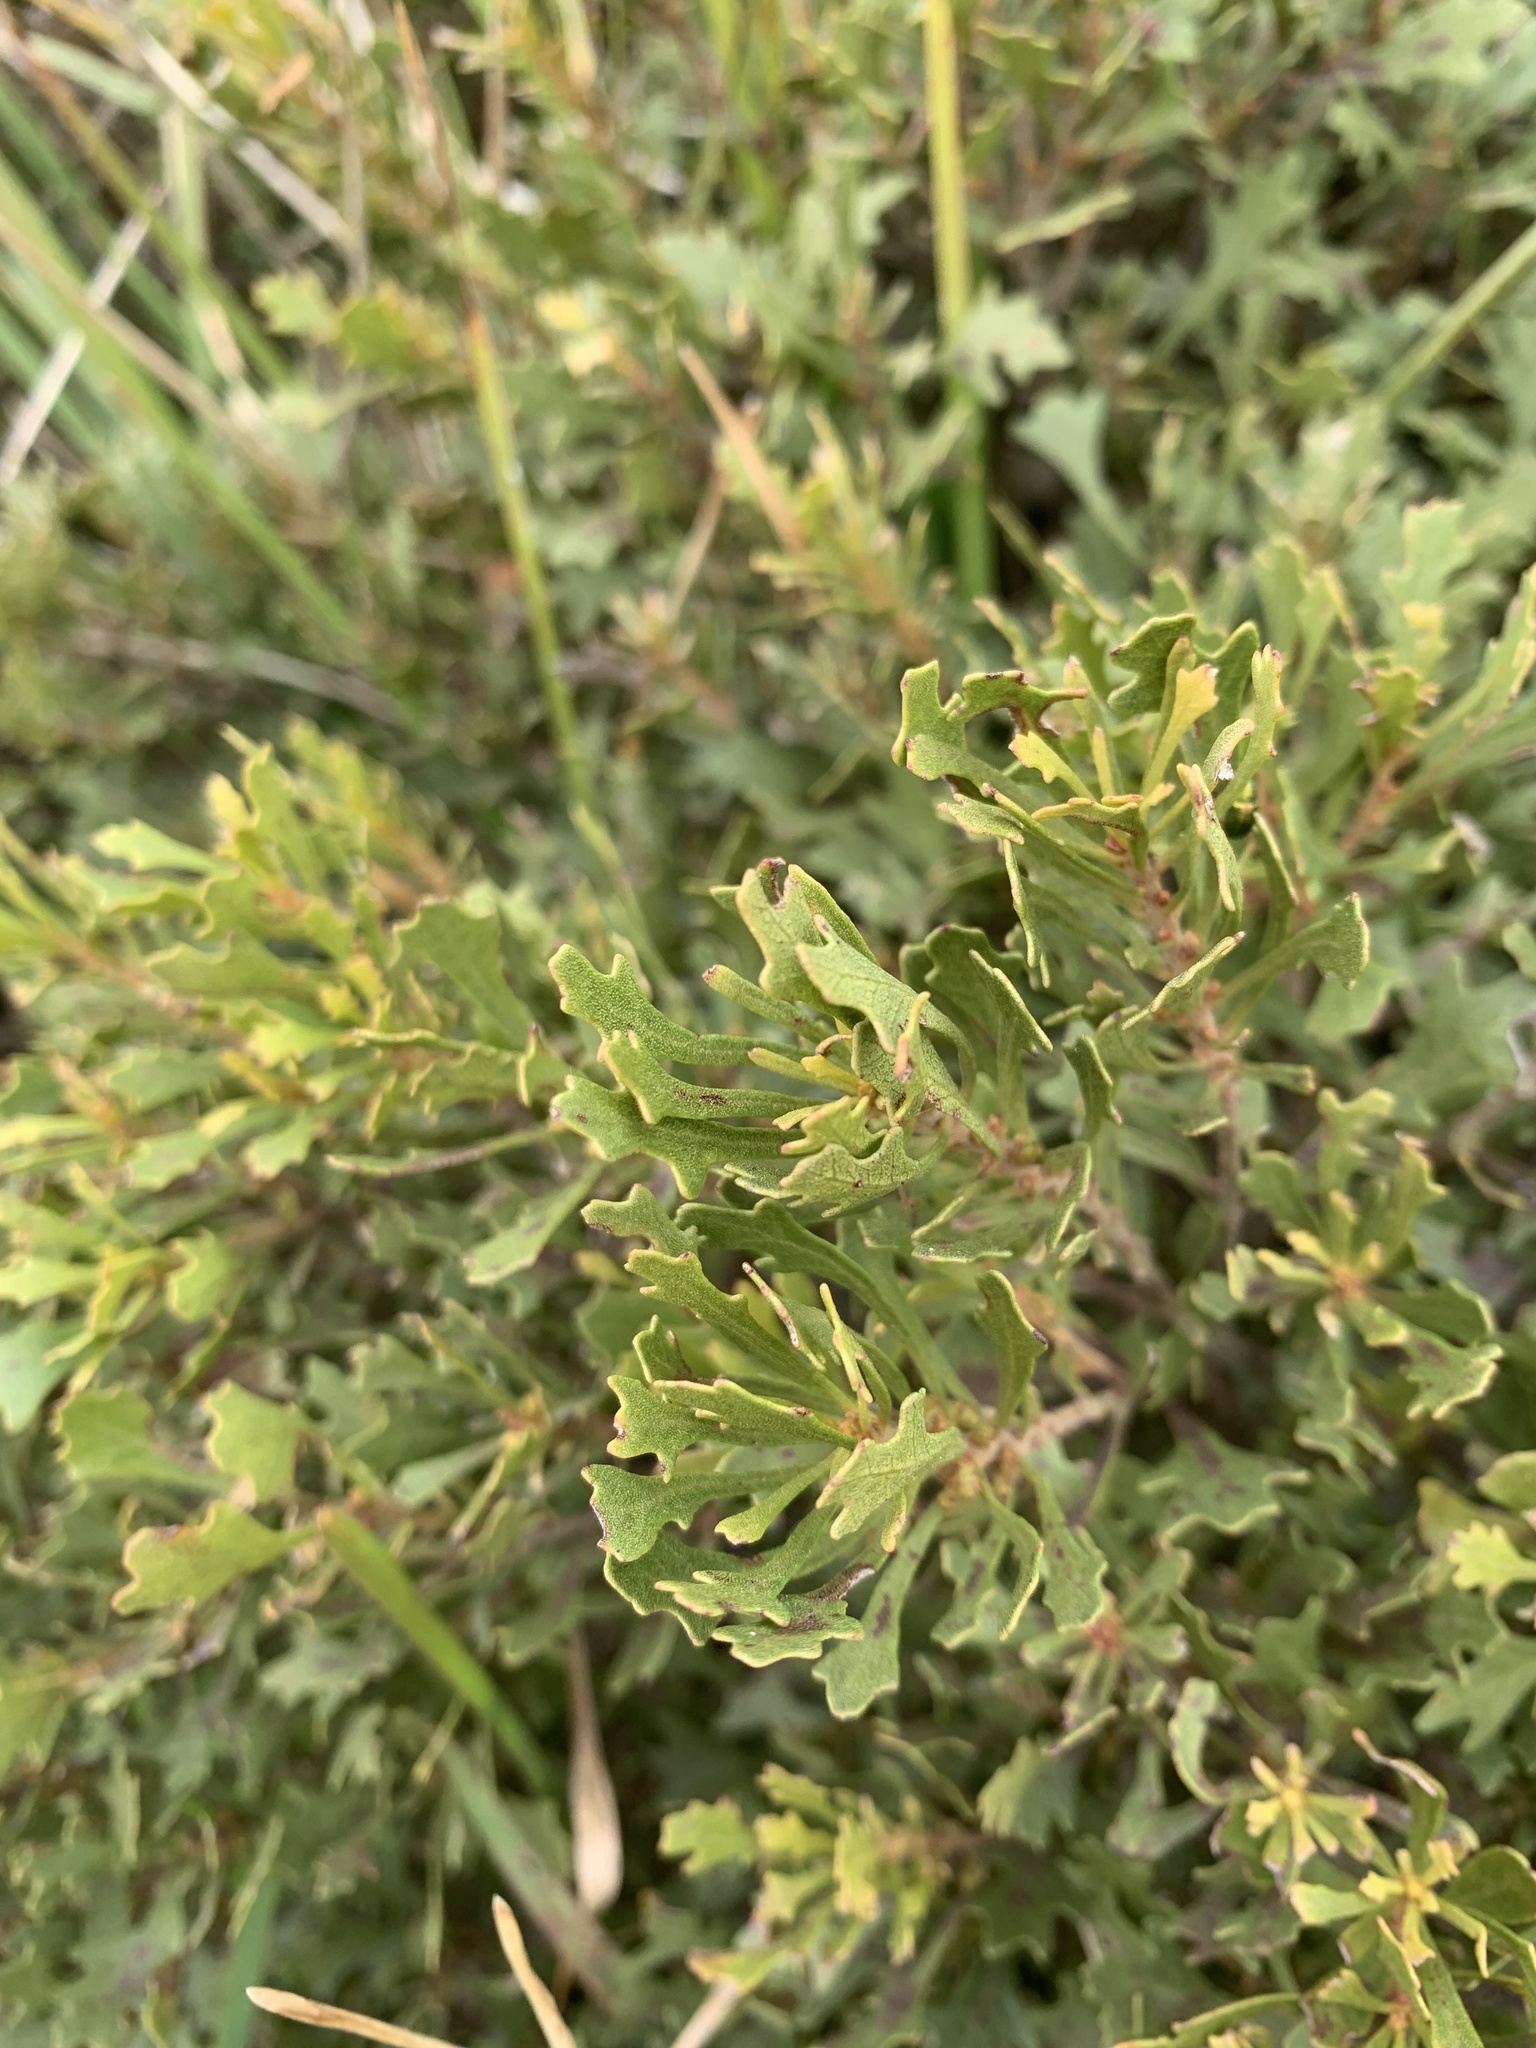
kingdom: Plantae
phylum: Tracheophyta
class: Magnoliopsida
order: Fagales
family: Myricaceae
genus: Morella
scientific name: Morella quercifolia
